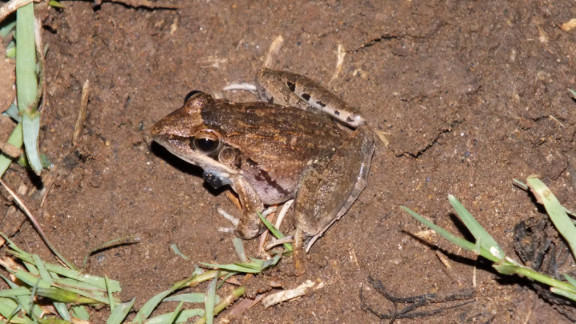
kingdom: Animalia
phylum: Chordata
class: Amphibia
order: Anura
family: Ptychadenidae
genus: Ptychadena
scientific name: Ptychadena anchietae
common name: Anchieta's ridged frog
